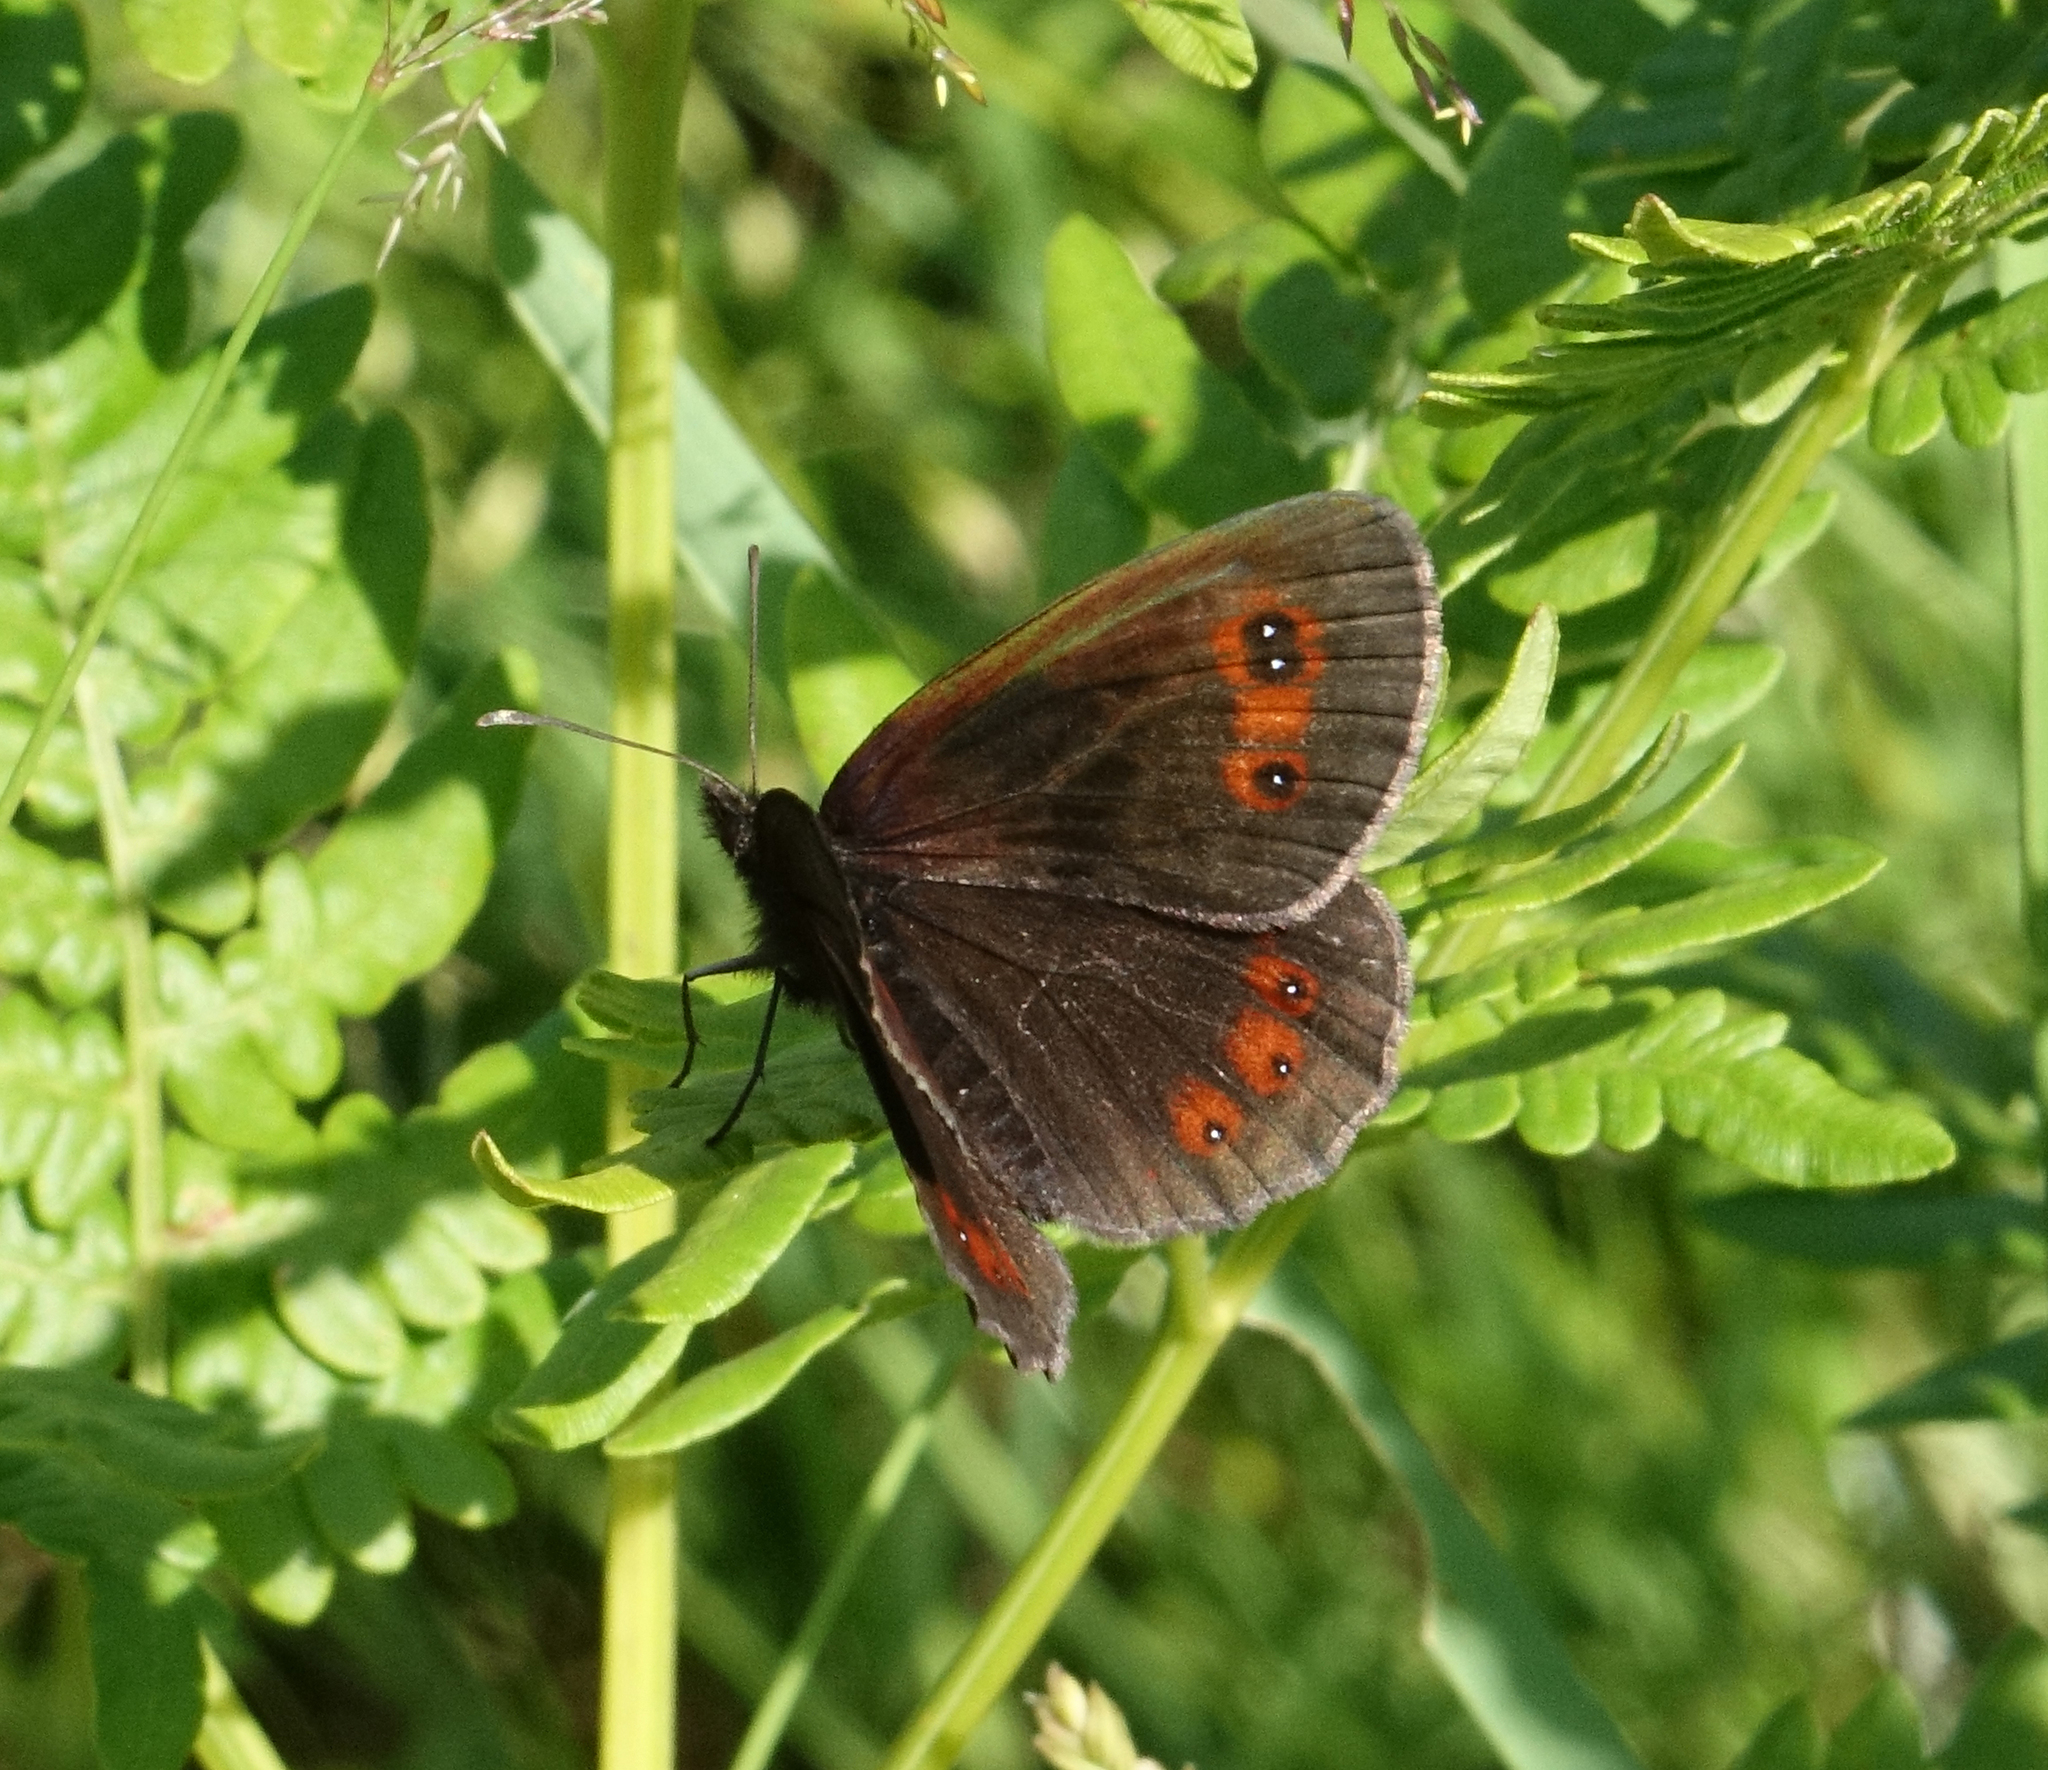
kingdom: Animalia
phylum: Arthropoda
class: Insecta
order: Lepidoptera
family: Nymphalidae
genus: Erebia
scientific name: Erebia aethiops
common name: Scotch argus
